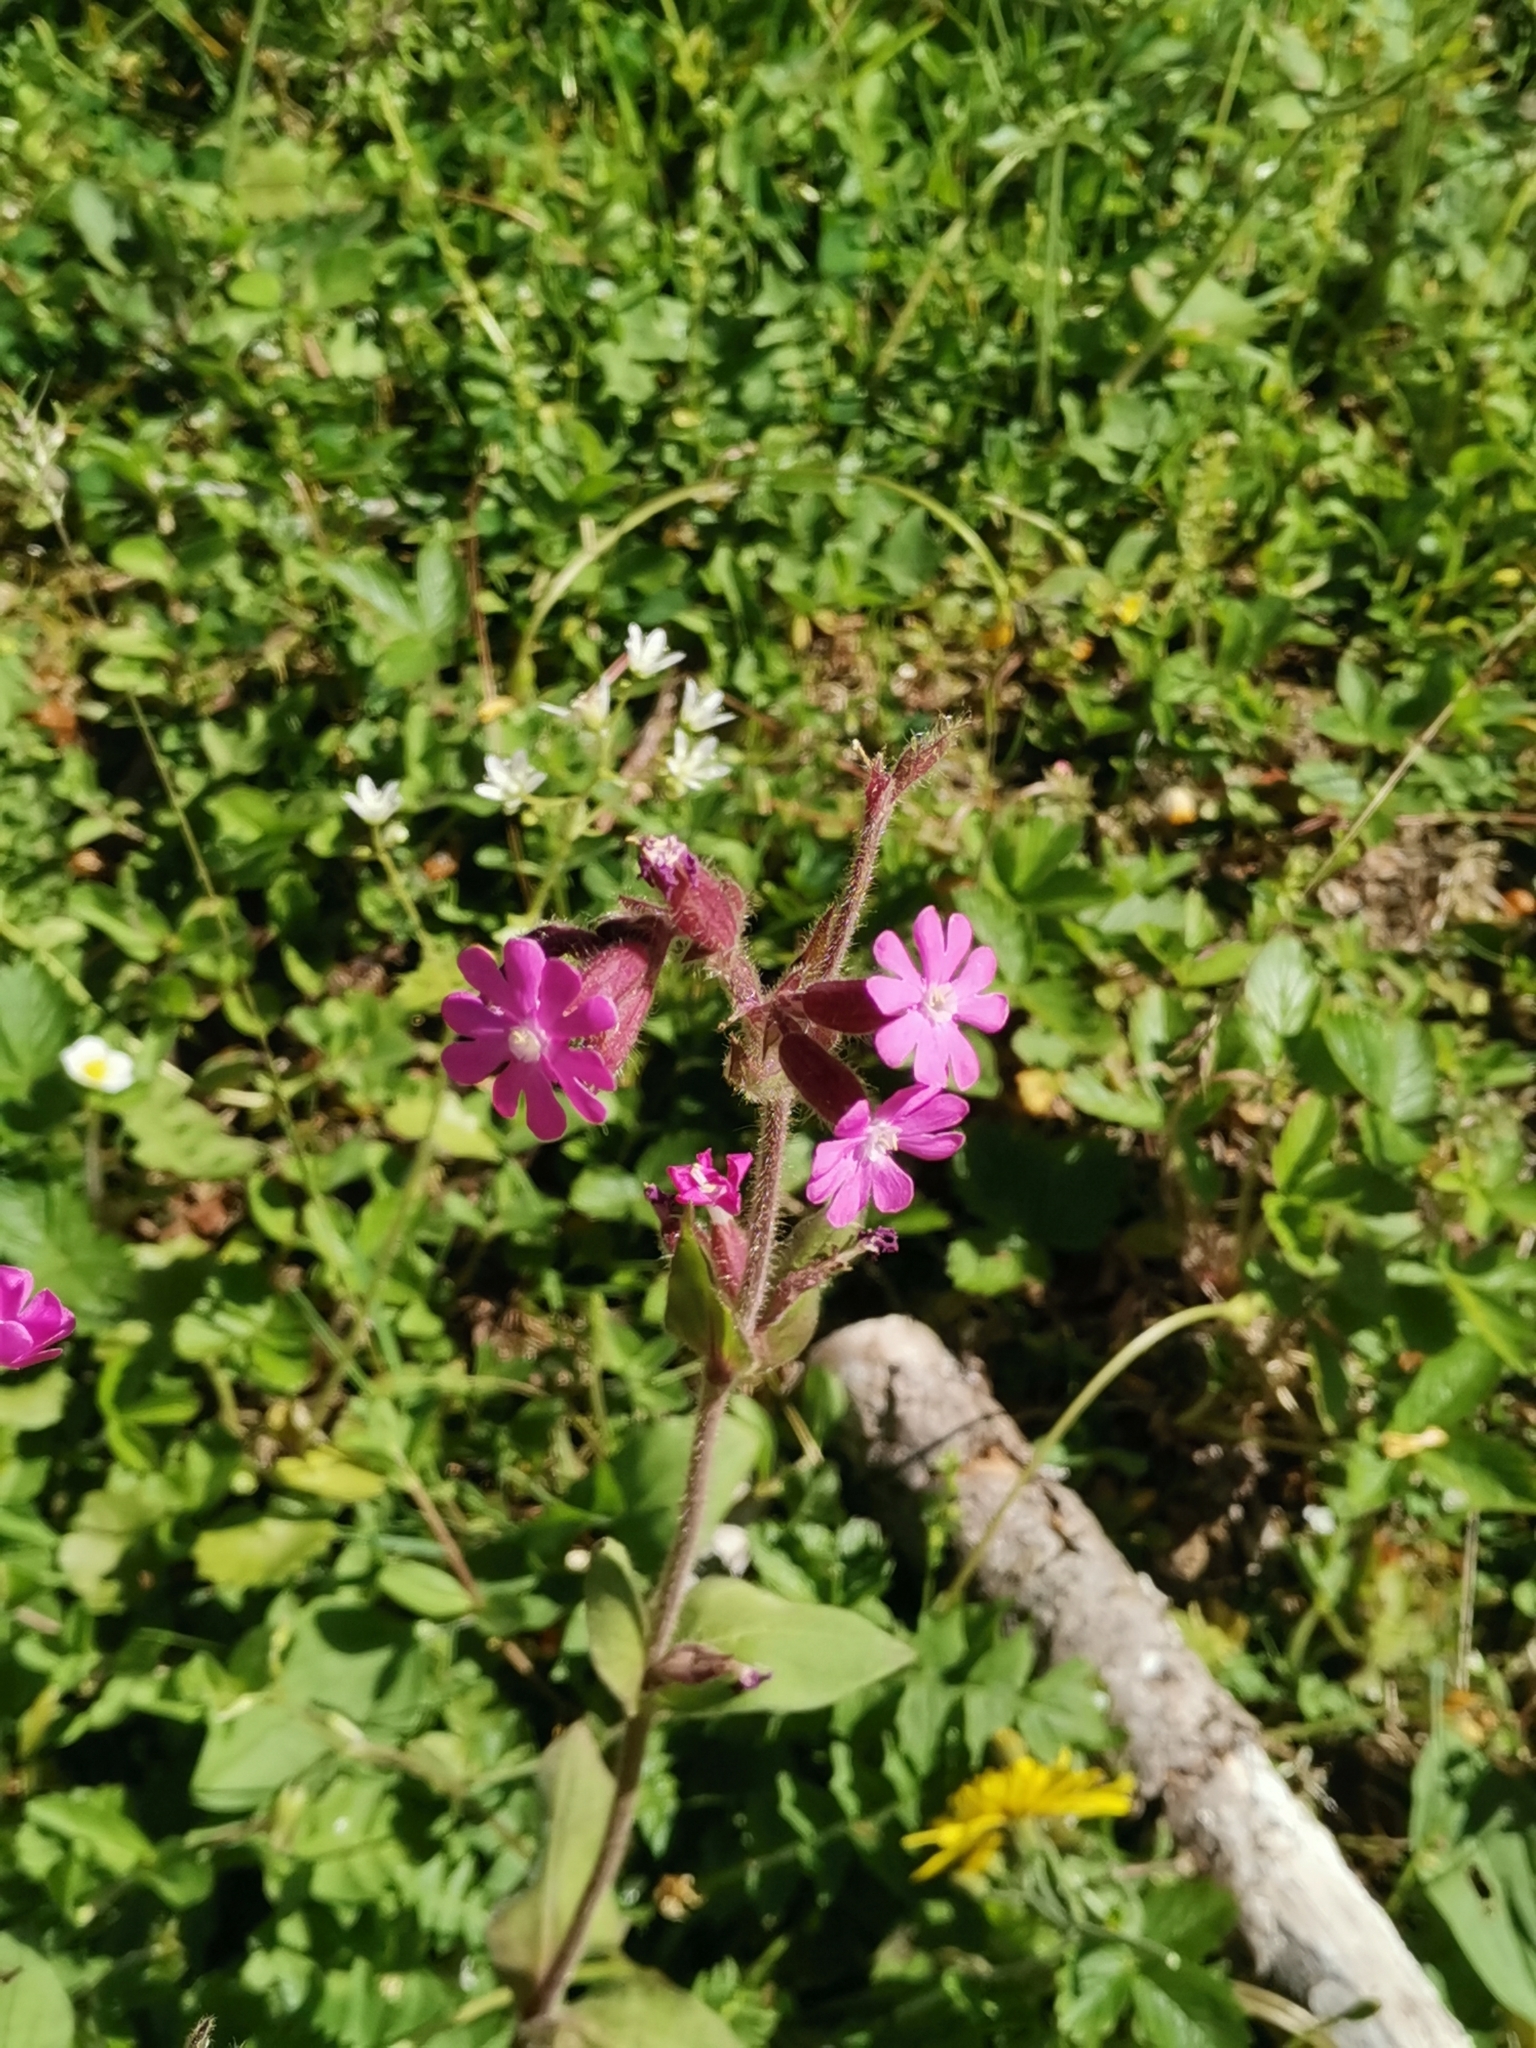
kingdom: Plantae
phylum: Tracheophyta
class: Magnoliopsida
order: Caryophyllales
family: Caryophyllaceae
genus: Silene
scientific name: Silene dioica
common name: Red campion
